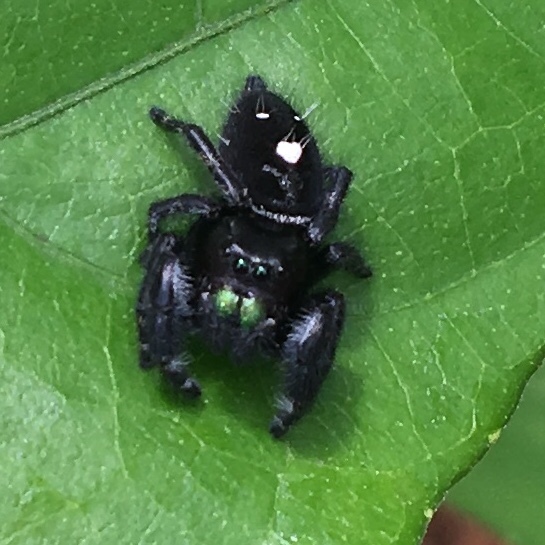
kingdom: Animalia
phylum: Arthropoda
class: Arachnida
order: Araneae
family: Salticidae
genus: Phidippus
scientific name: Phidippus audax
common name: Bold jumper
